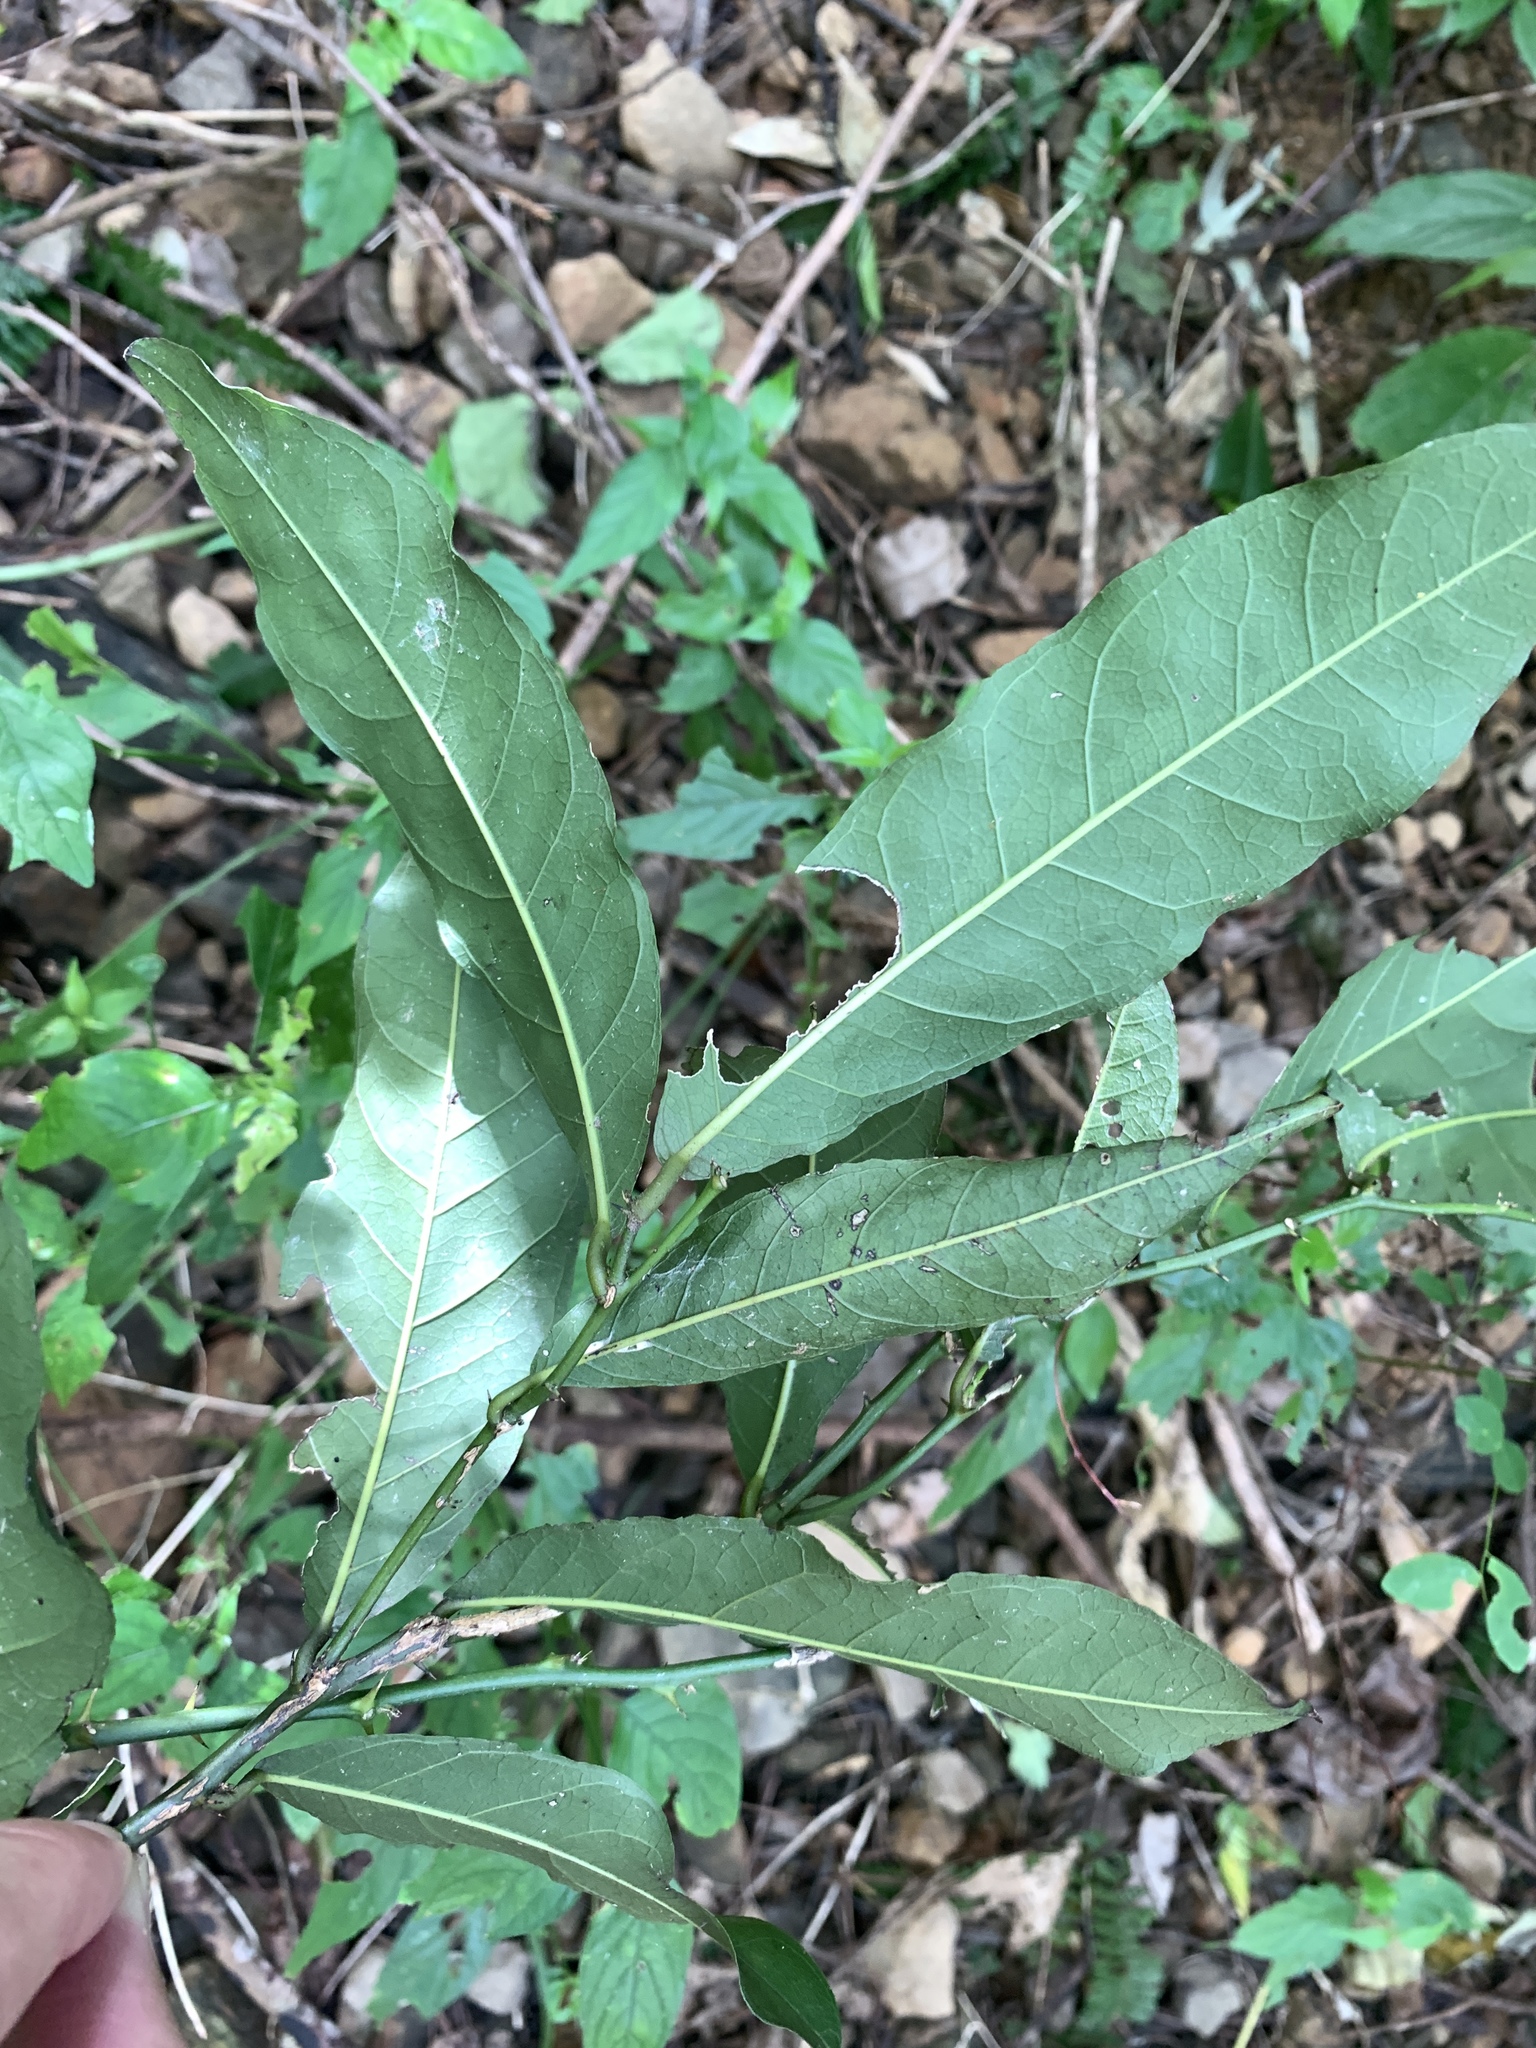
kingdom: Plantae
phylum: Tracheophyta
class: Magnoliopsida
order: Brassicales
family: Capparaceae
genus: Capparis
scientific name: Capparis henryi
